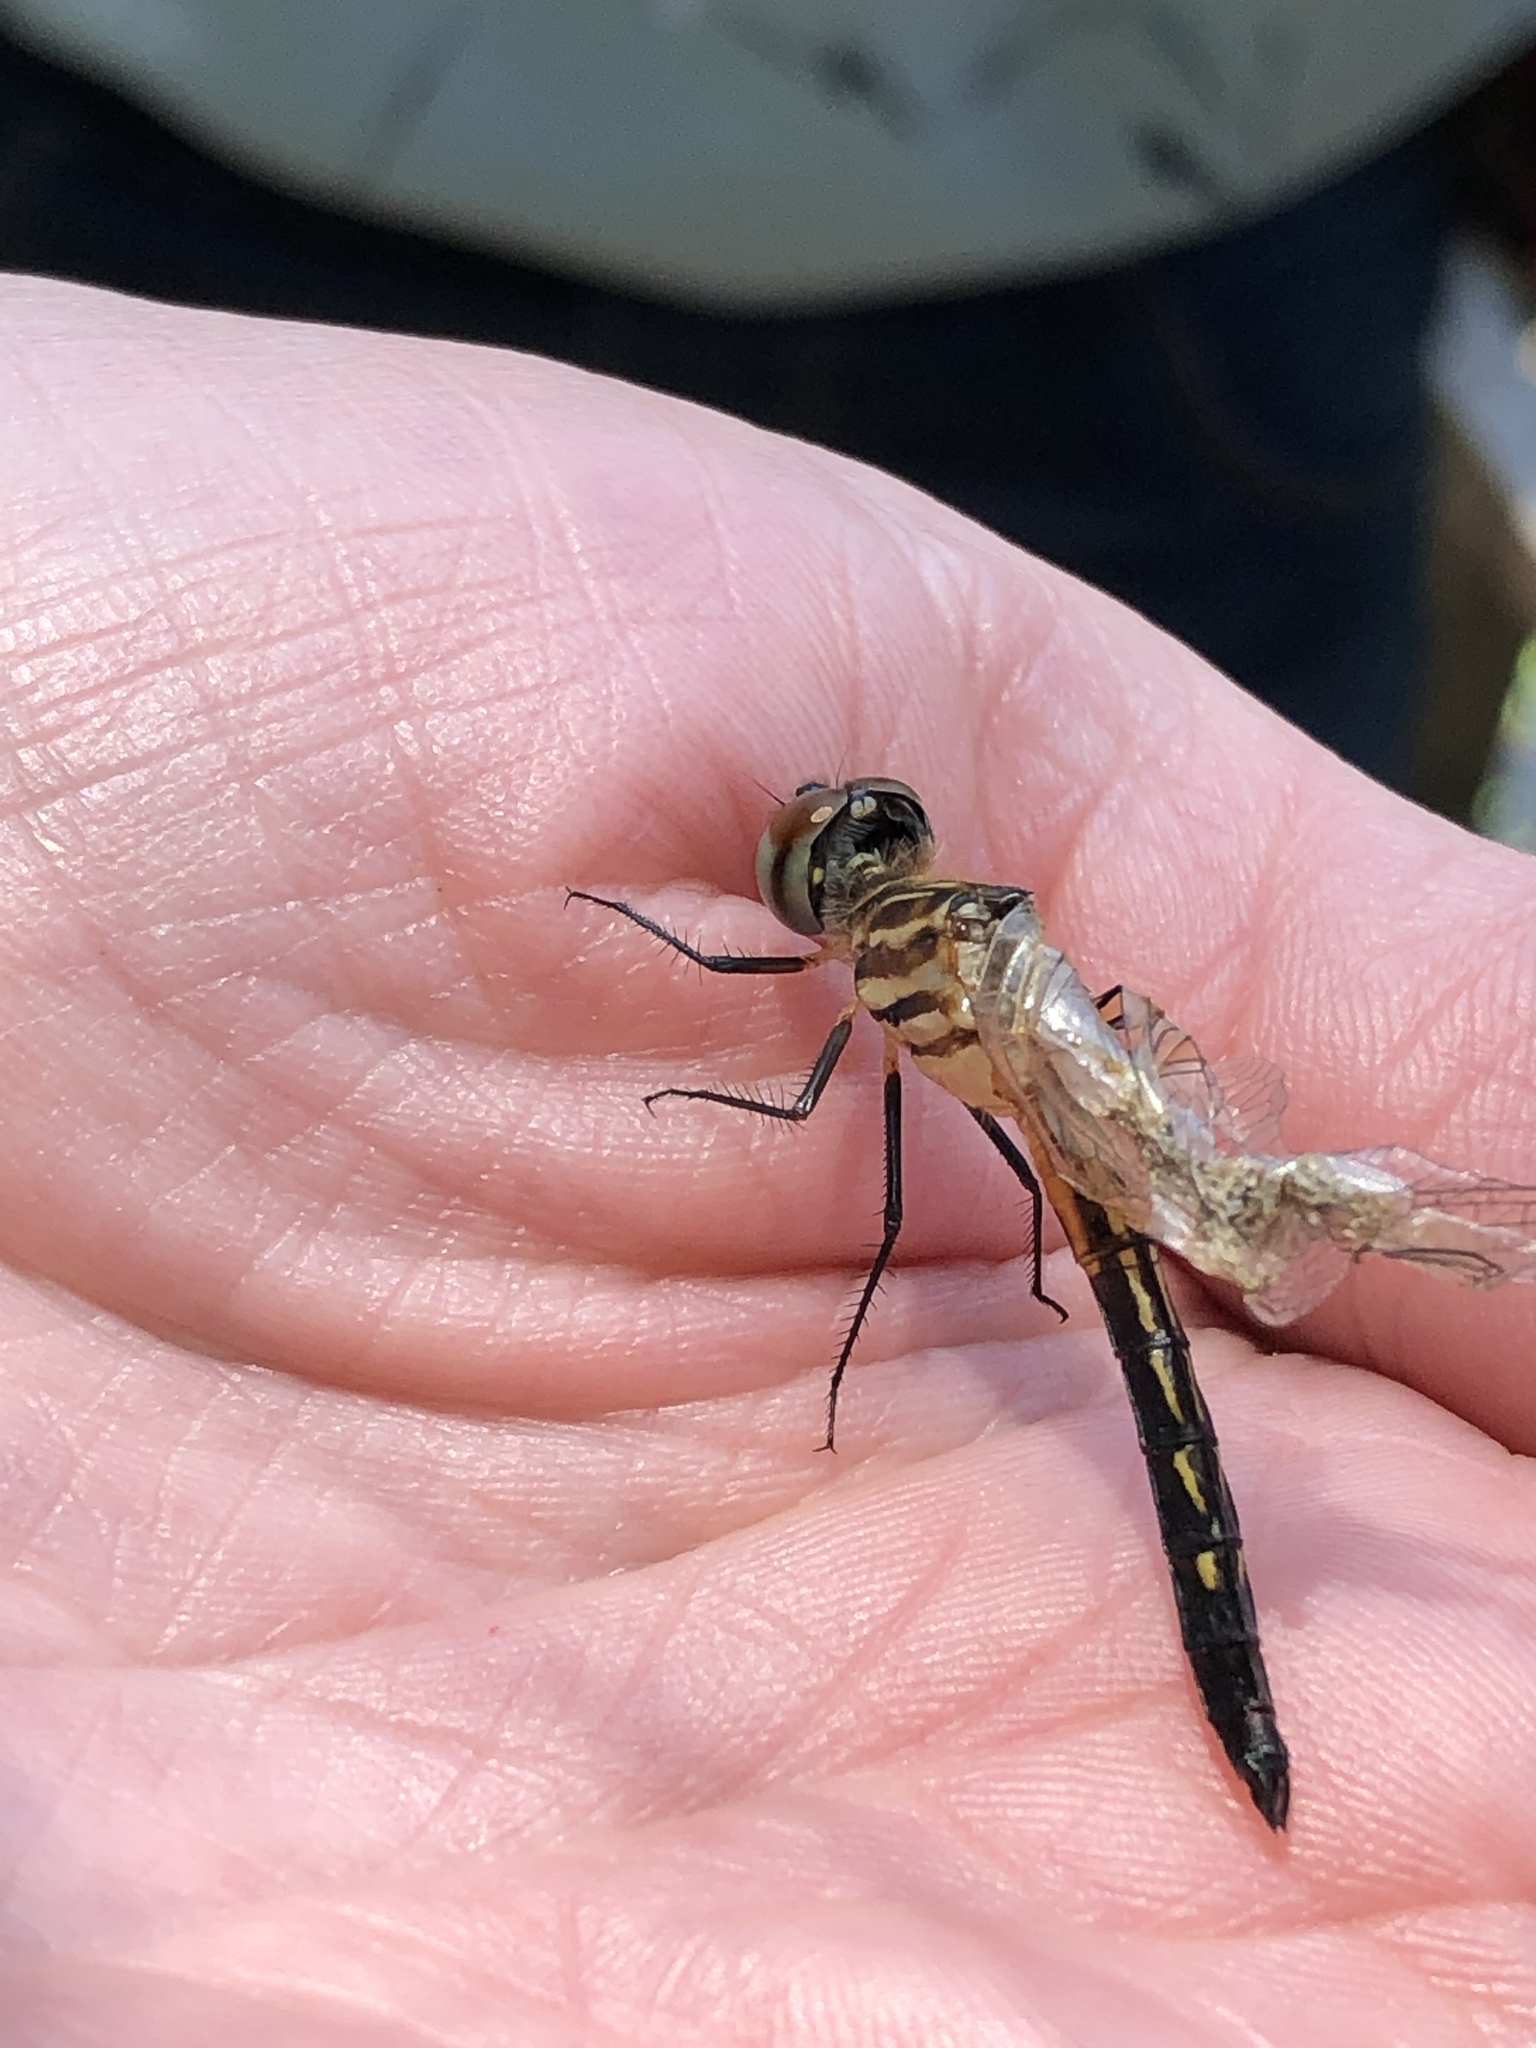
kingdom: Animalia
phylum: Arthropoda
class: Insecta
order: Odonata
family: Libellulidae
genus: Pachydiplax
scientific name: Pachydiplax longipennis
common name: Blue dasher
